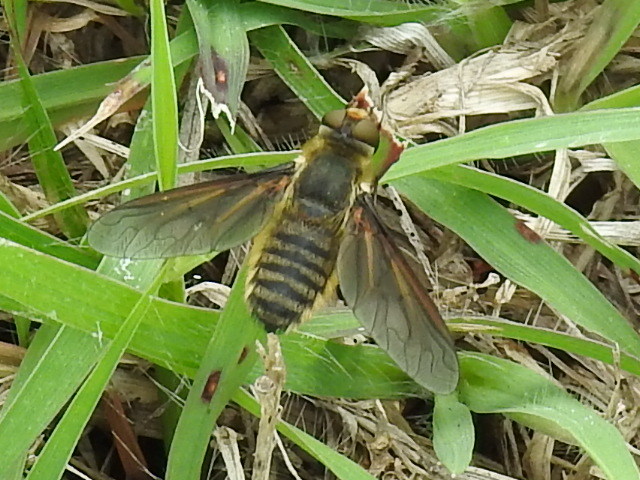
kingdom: Animalia
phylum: Arthropoda
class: Insecta
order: Diptera
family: Bombyliidae
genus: Poecilanthrax
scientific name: Poecilanthrax lucifer
